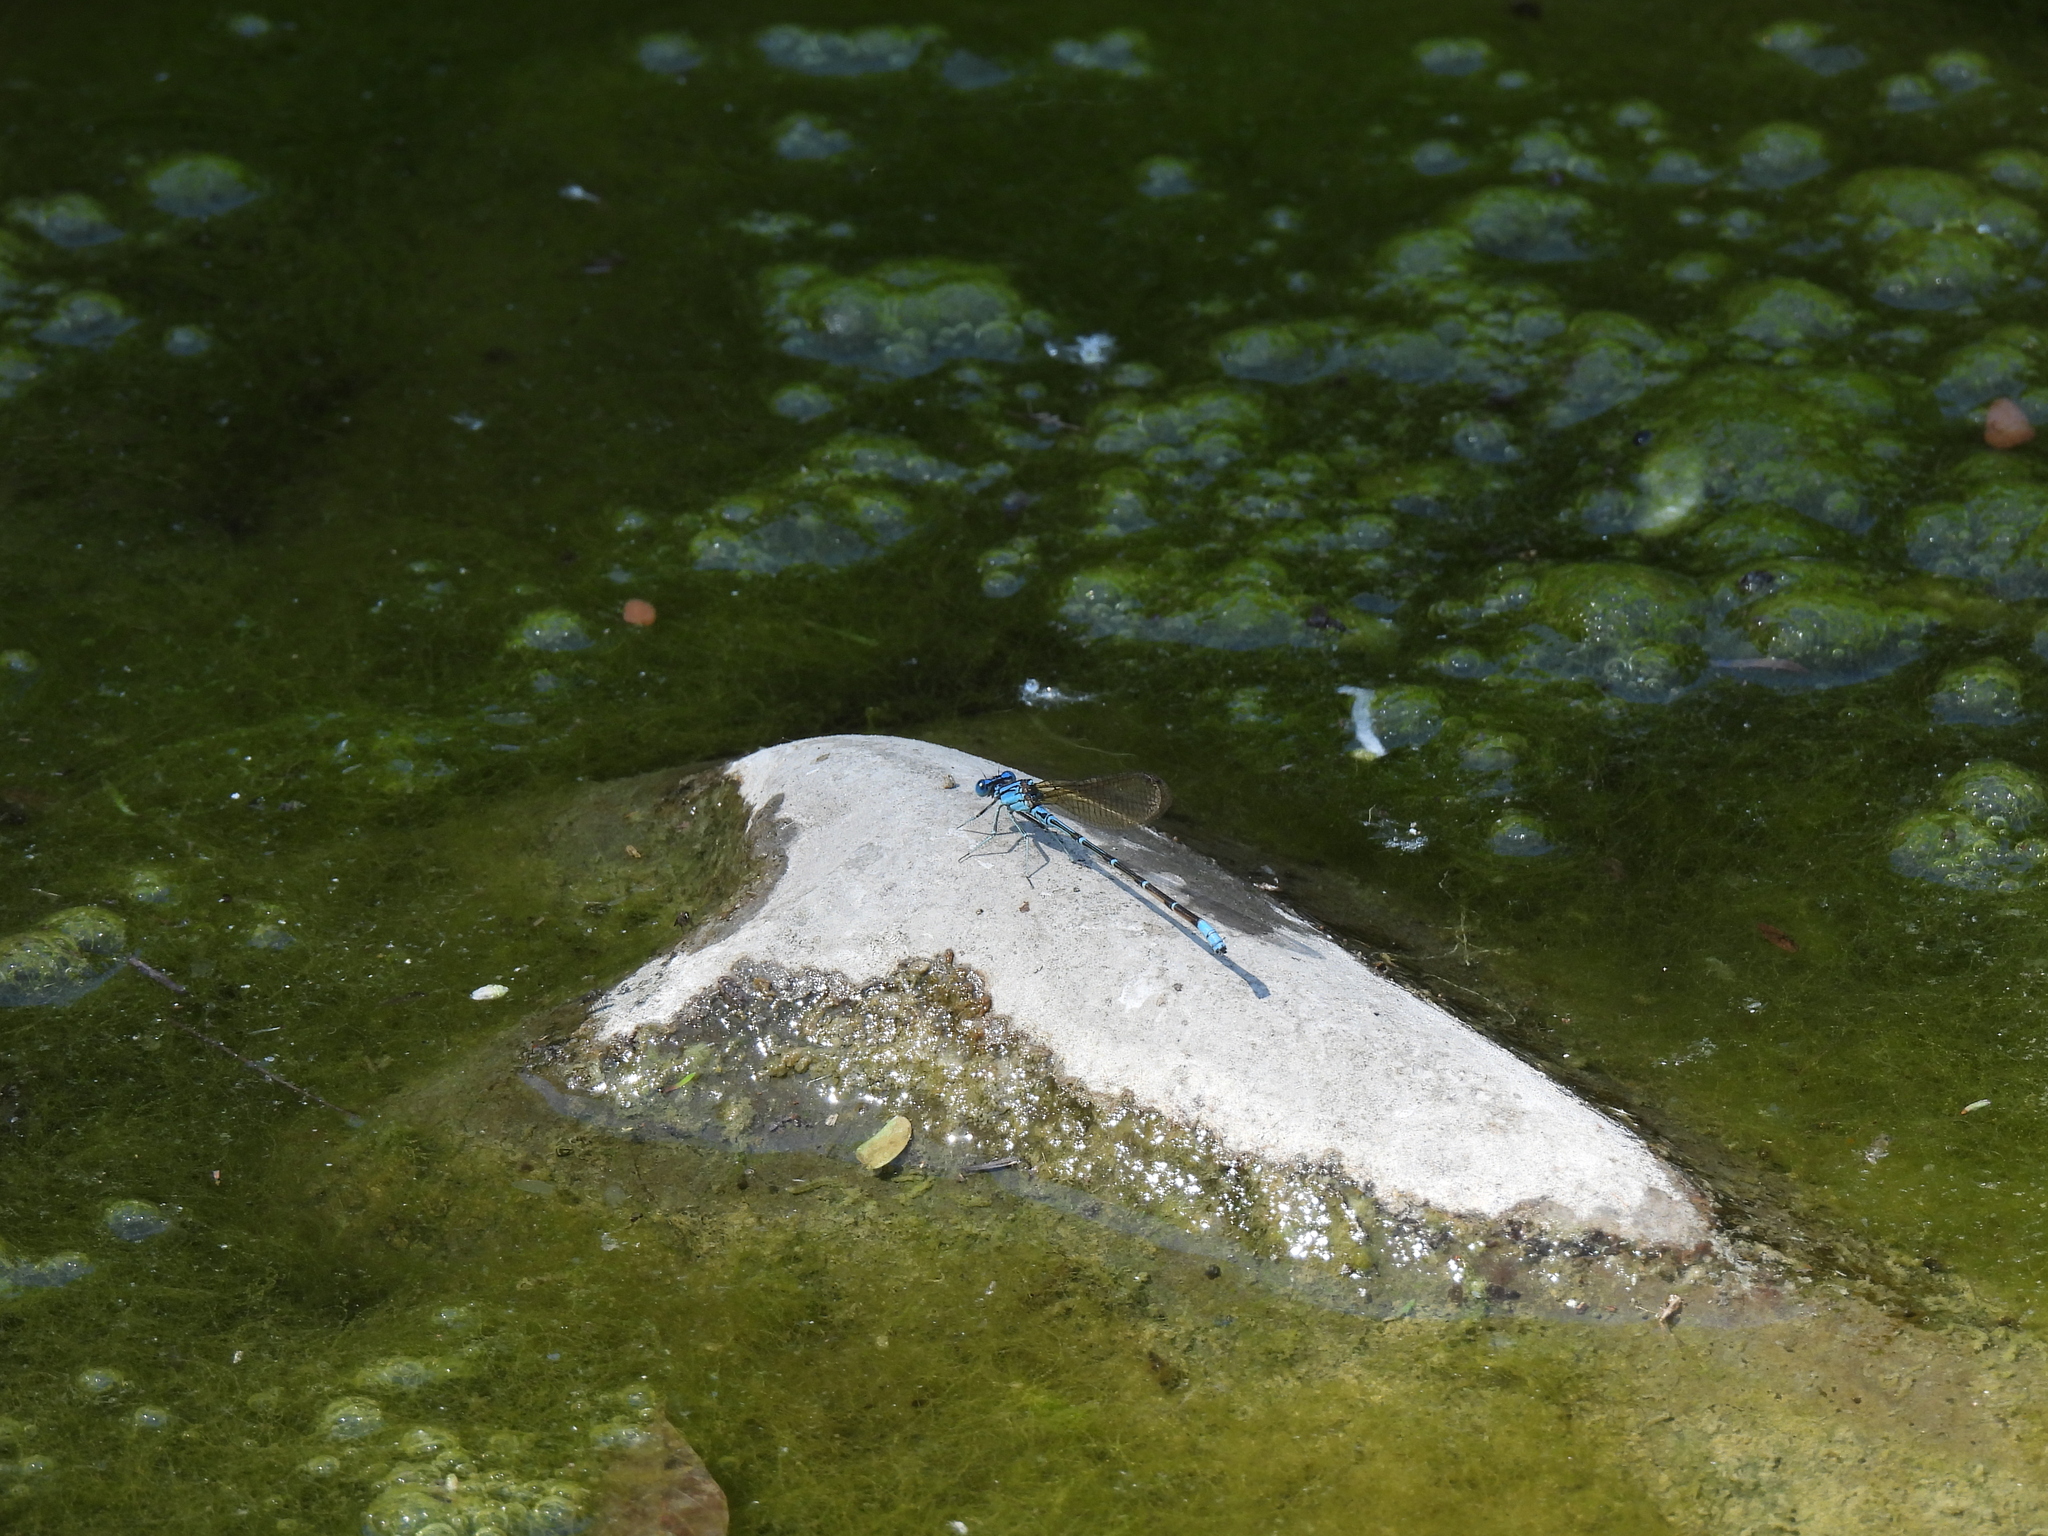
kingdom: Animalia
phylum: Arthropoda
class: Insecta
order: Odonata
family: Coenagrionidae
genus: Argia
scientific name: Argia sedula
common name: Blue-ringed dancer
